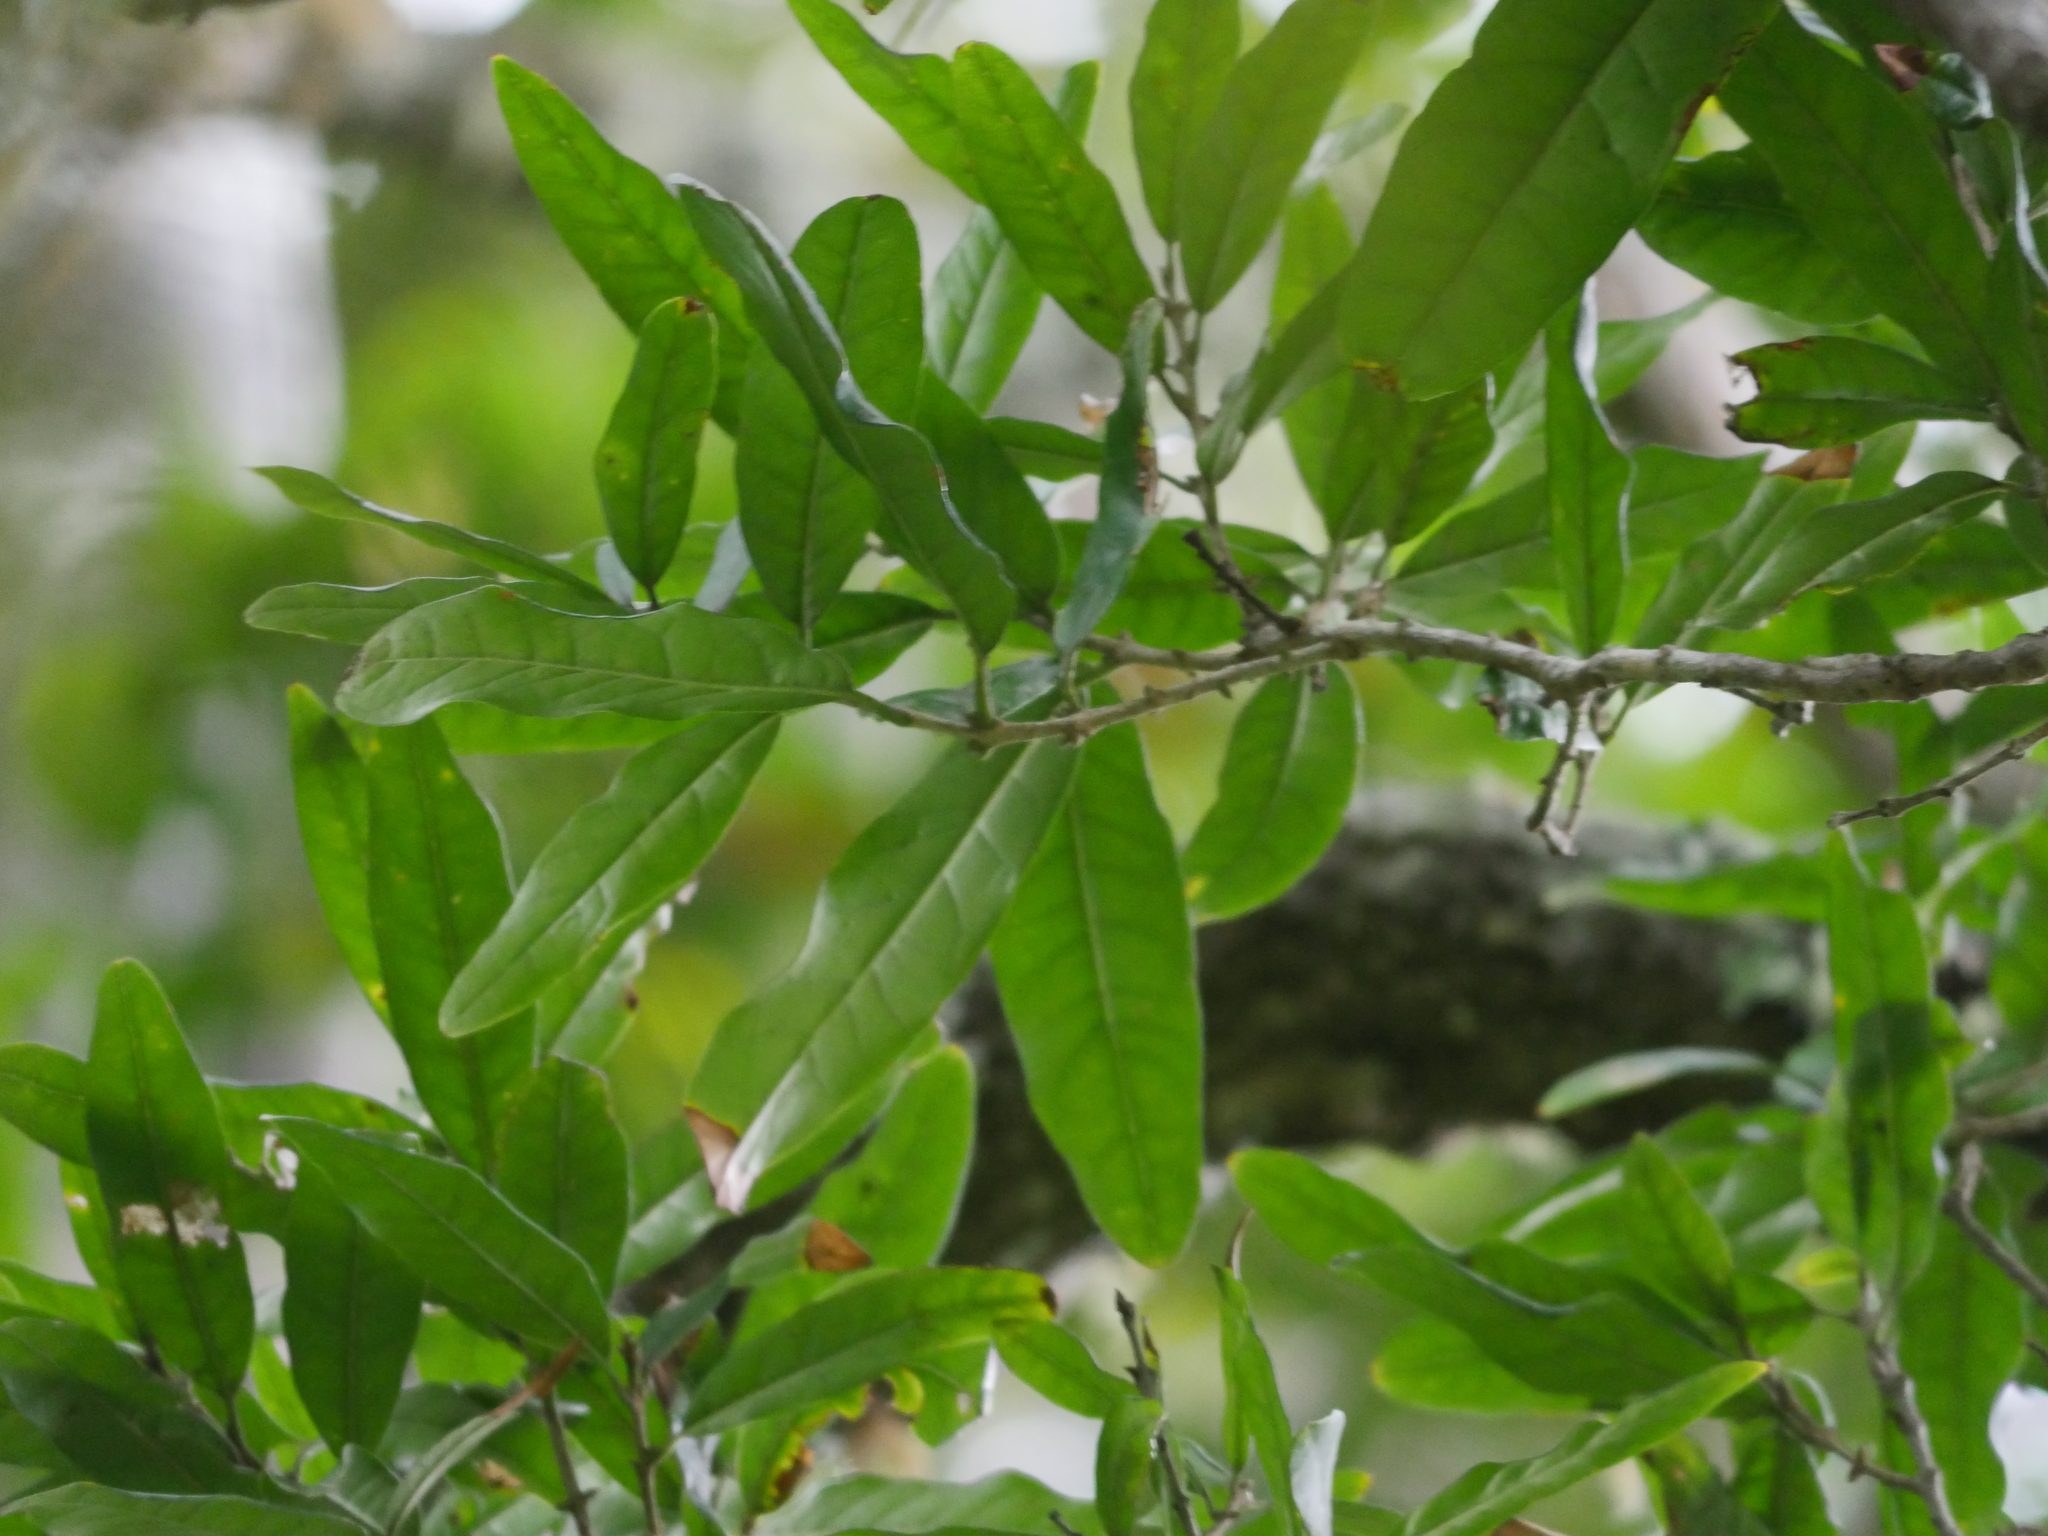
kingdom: Plantae
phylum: Tracheophyta
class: Magnoliopsida
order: Lamiales
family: Oleaceae
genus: Nestegis
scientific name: Nestegis cunninghamii
